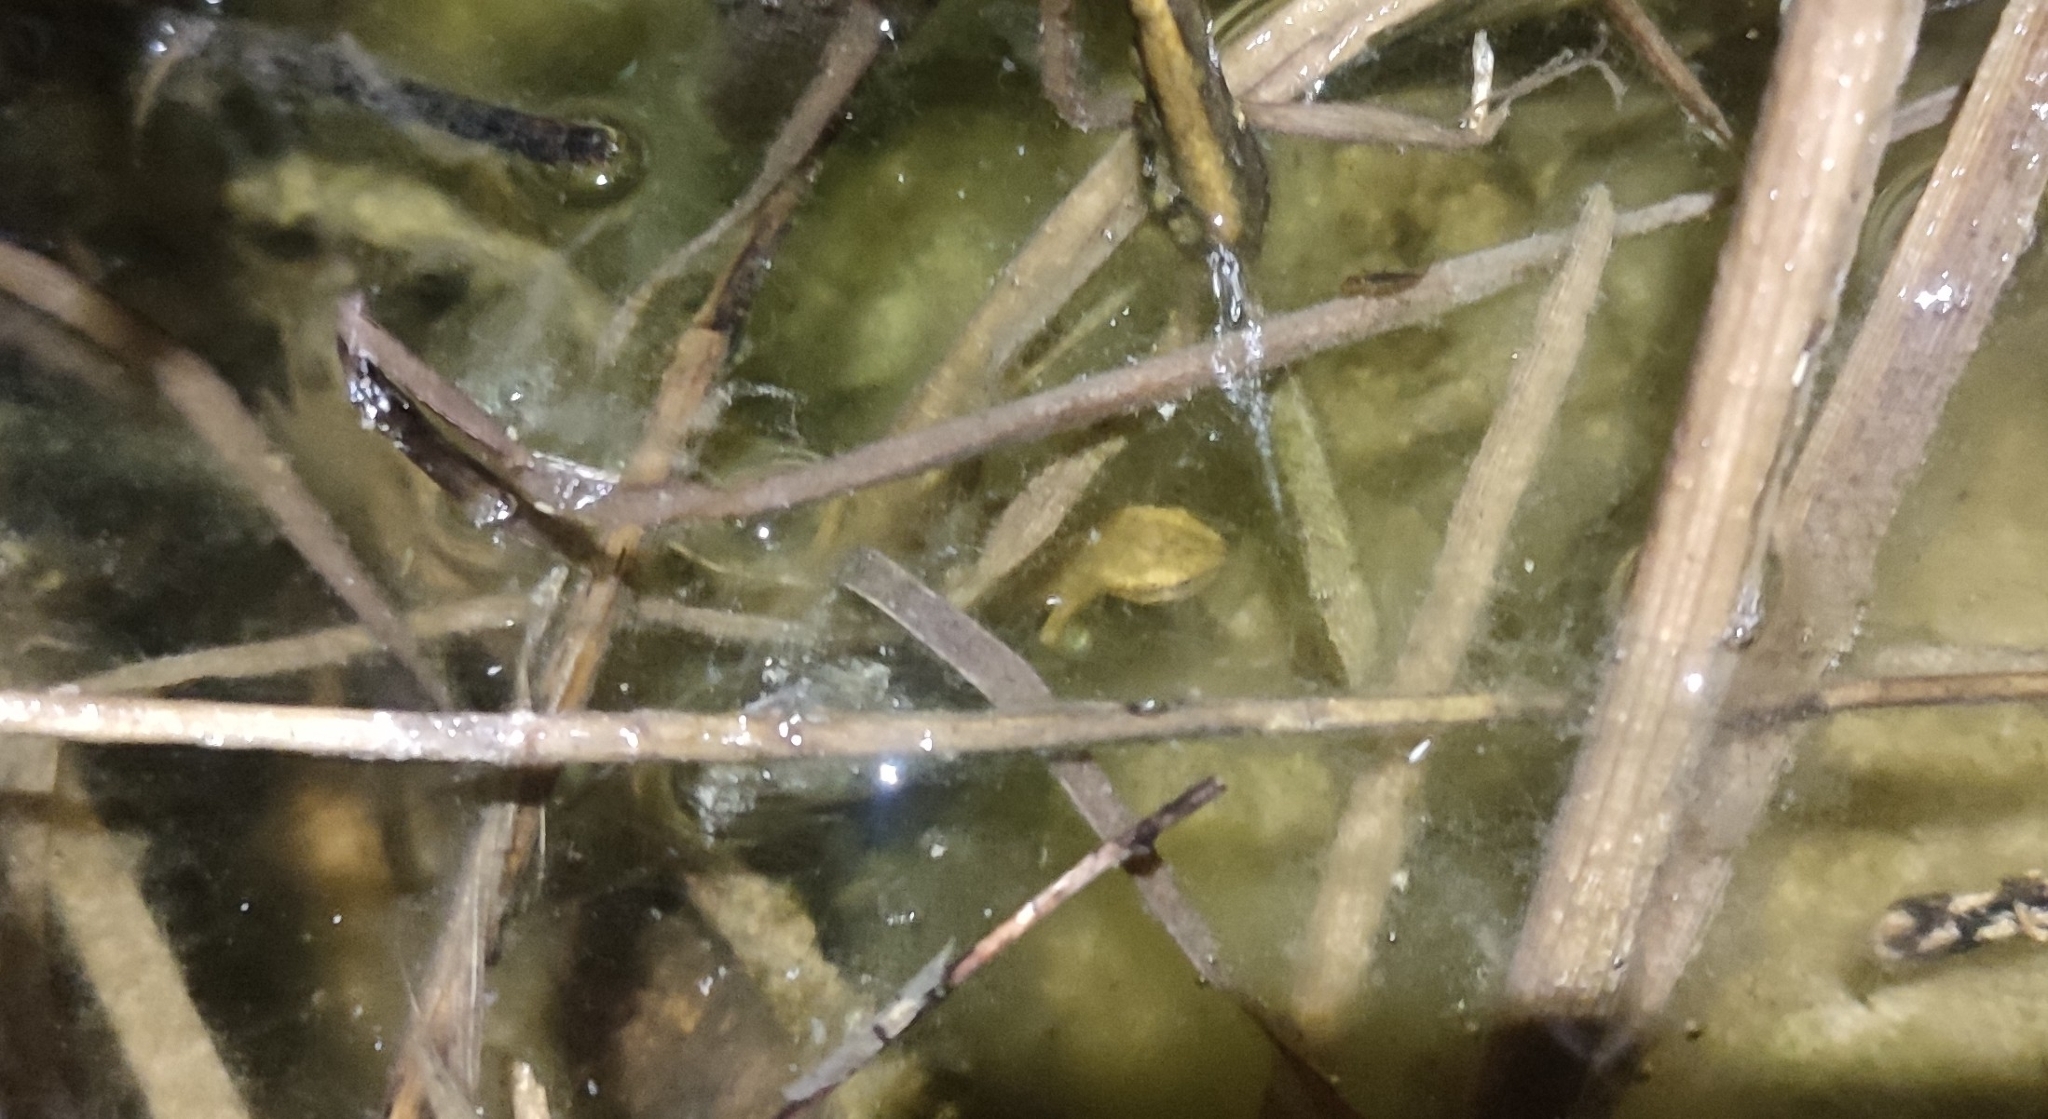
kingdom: Animalia
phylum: Chordata
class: Amphibia
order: Caudata
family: Salamandridae
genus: Lissotriton
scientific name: Lissotriton helveticus
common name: Palmate newt
